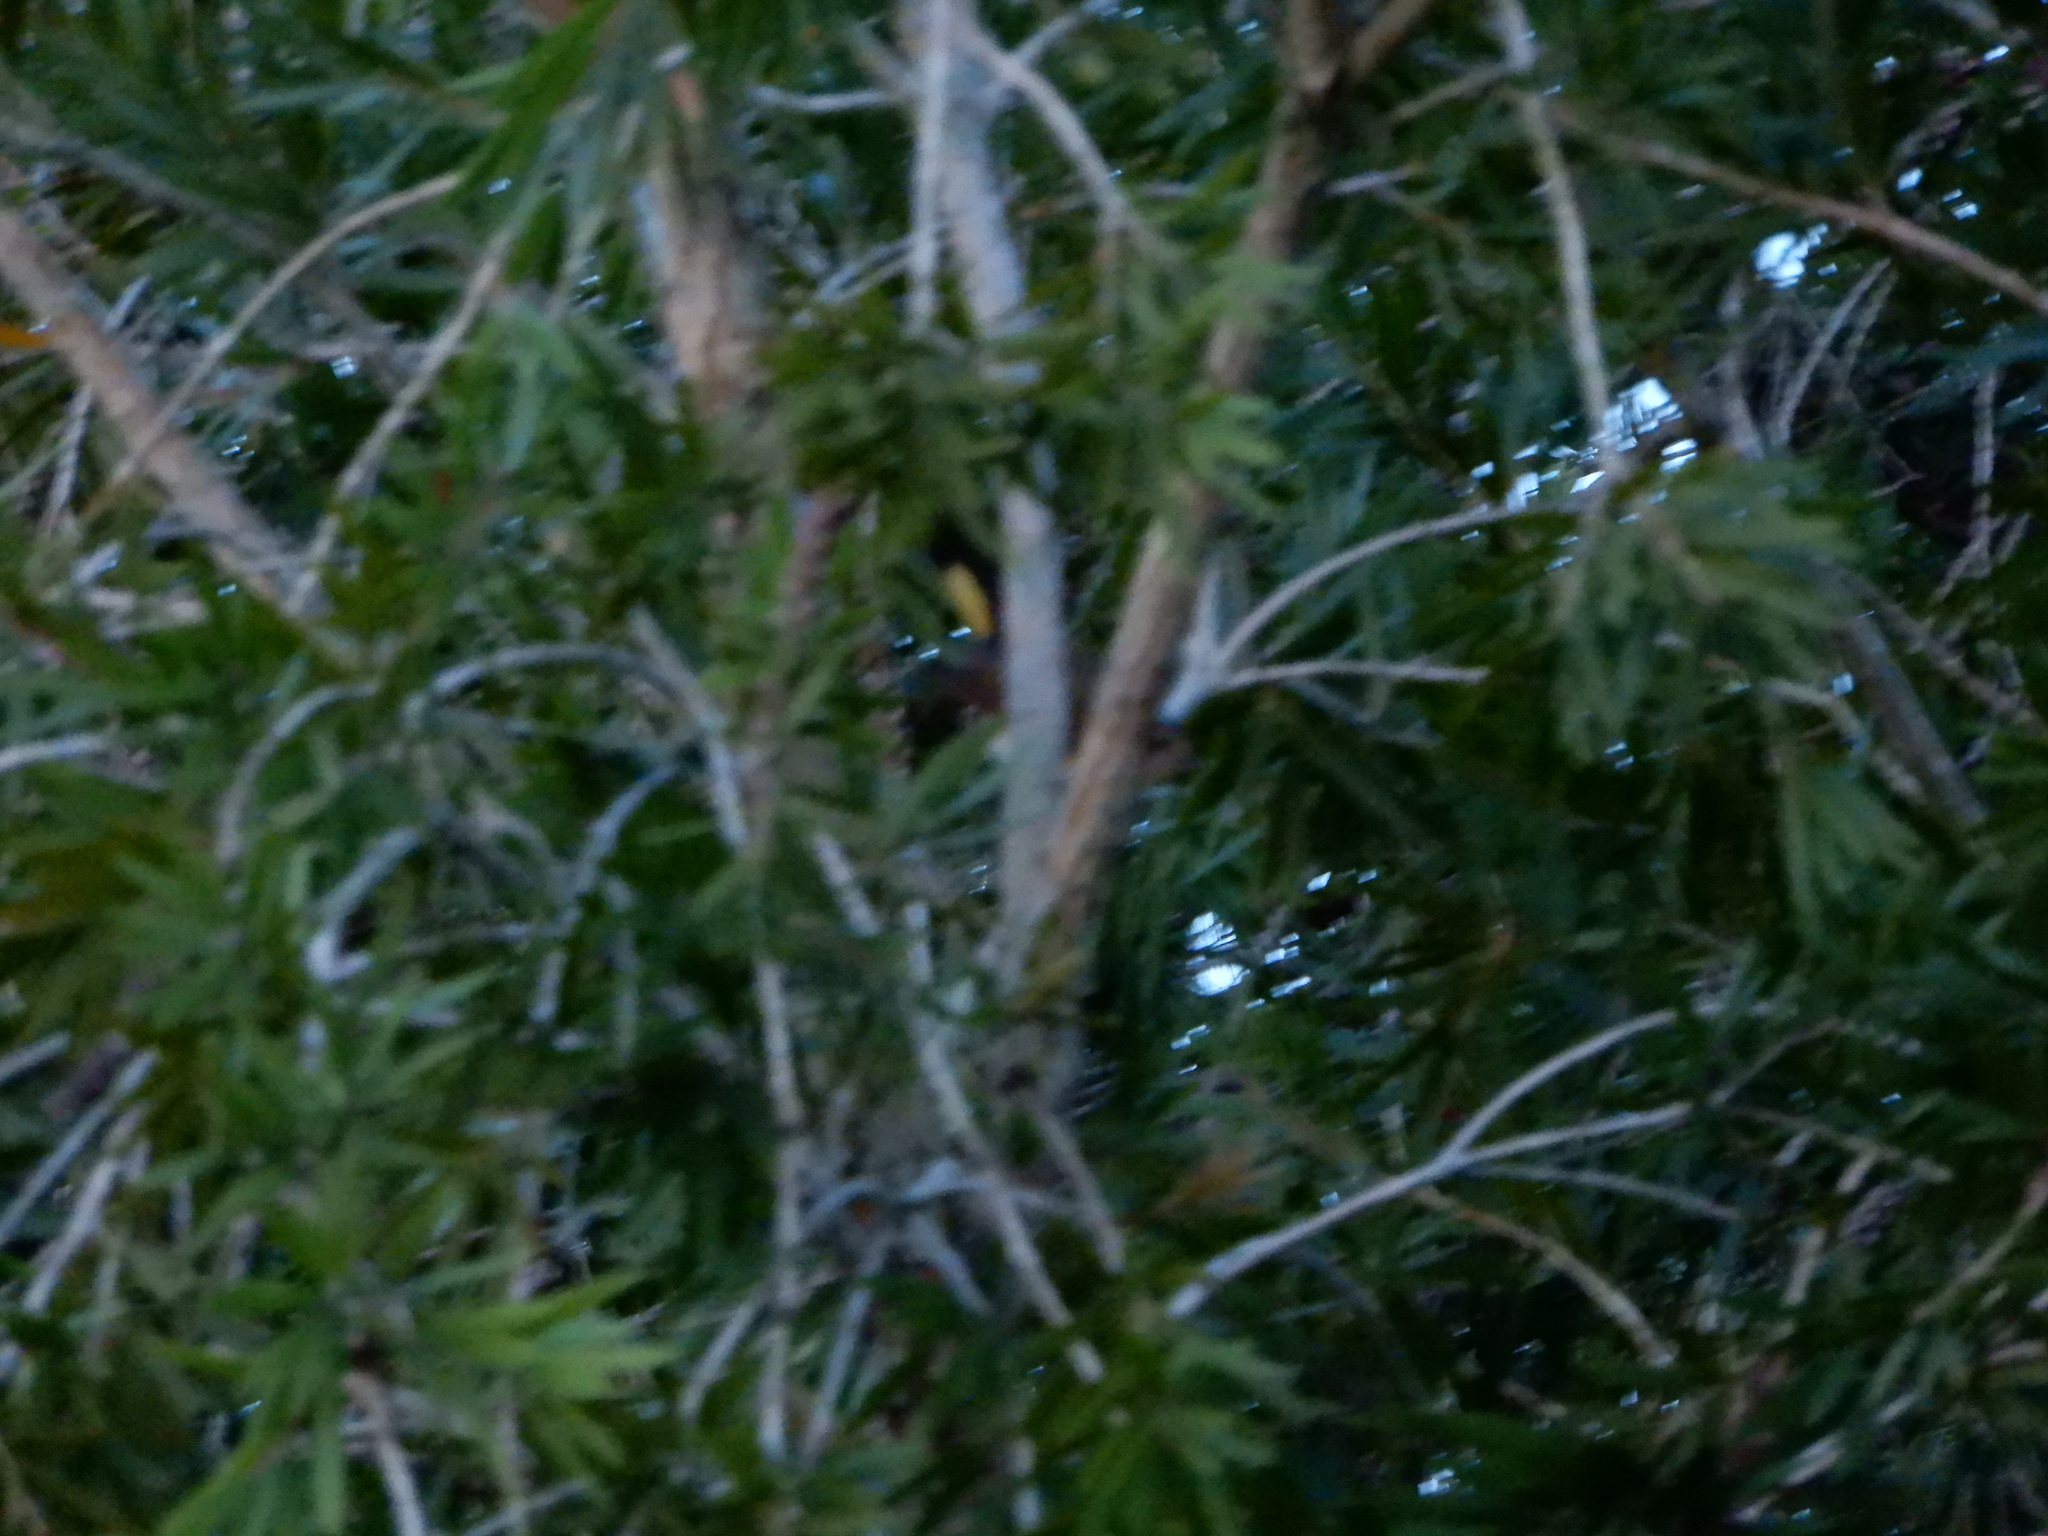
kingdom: Animalia
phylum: Chordata
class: Aves
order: Passeriformes
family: Parulidae
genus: Setophaga
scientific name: Setophaga ruticilla
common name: American redstart
